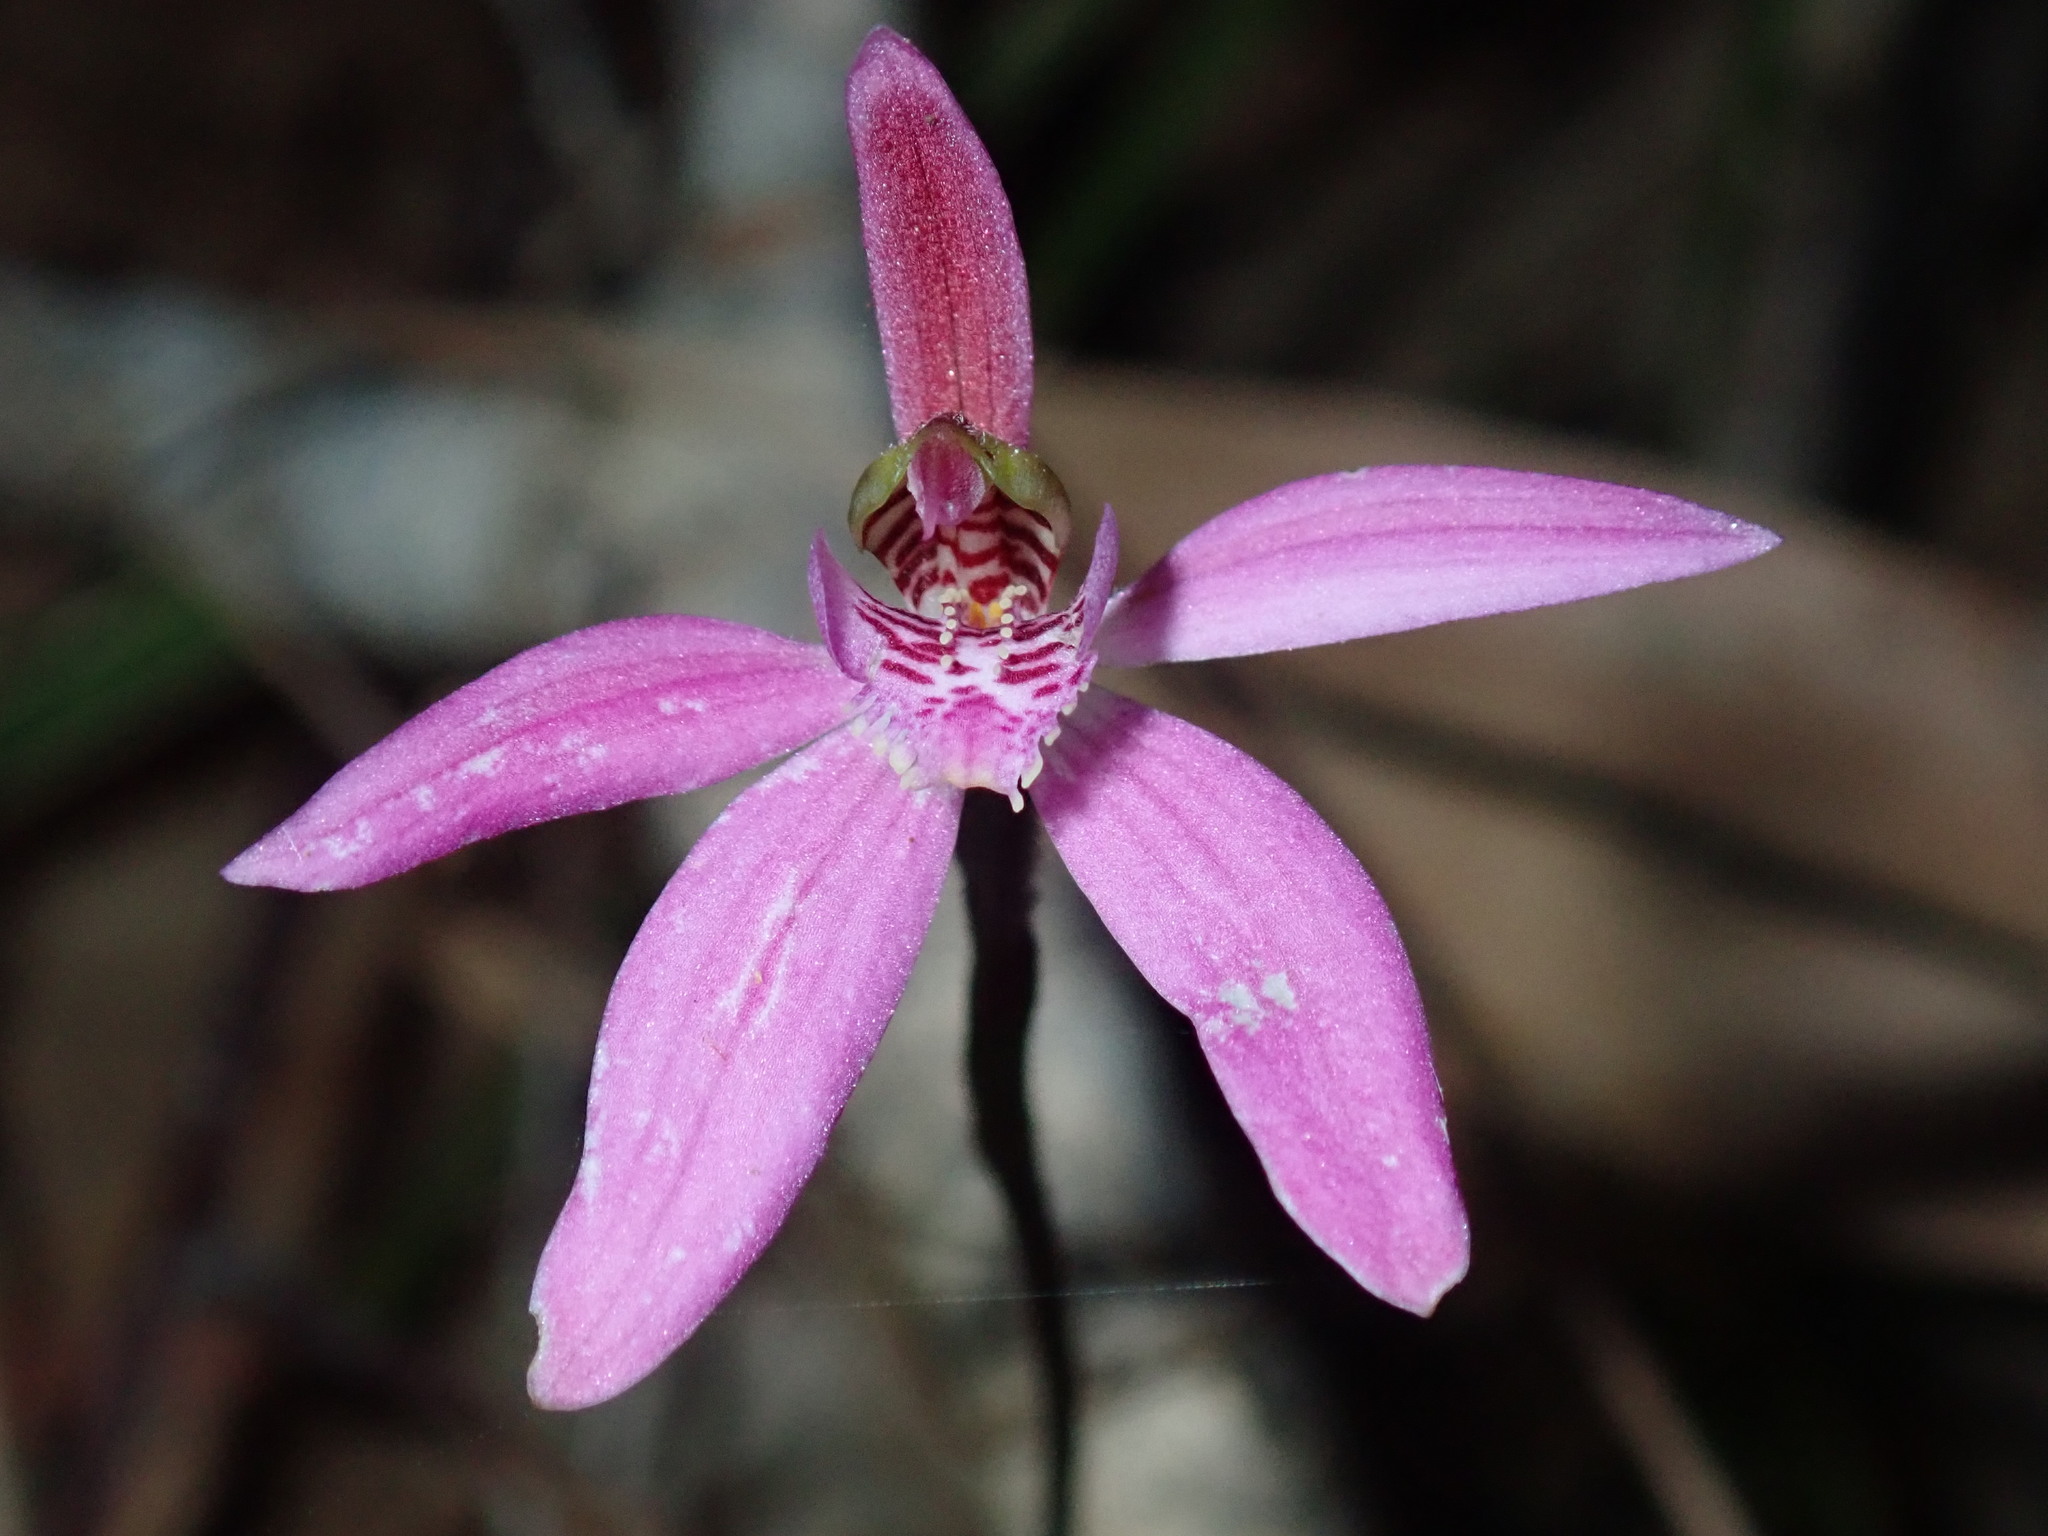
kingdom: Plantae
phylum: Tracheophyta
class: Liliopsida
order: Asparagales
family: Orchidaceae
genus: Caladenia
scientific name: Caladenia quadrifaria
